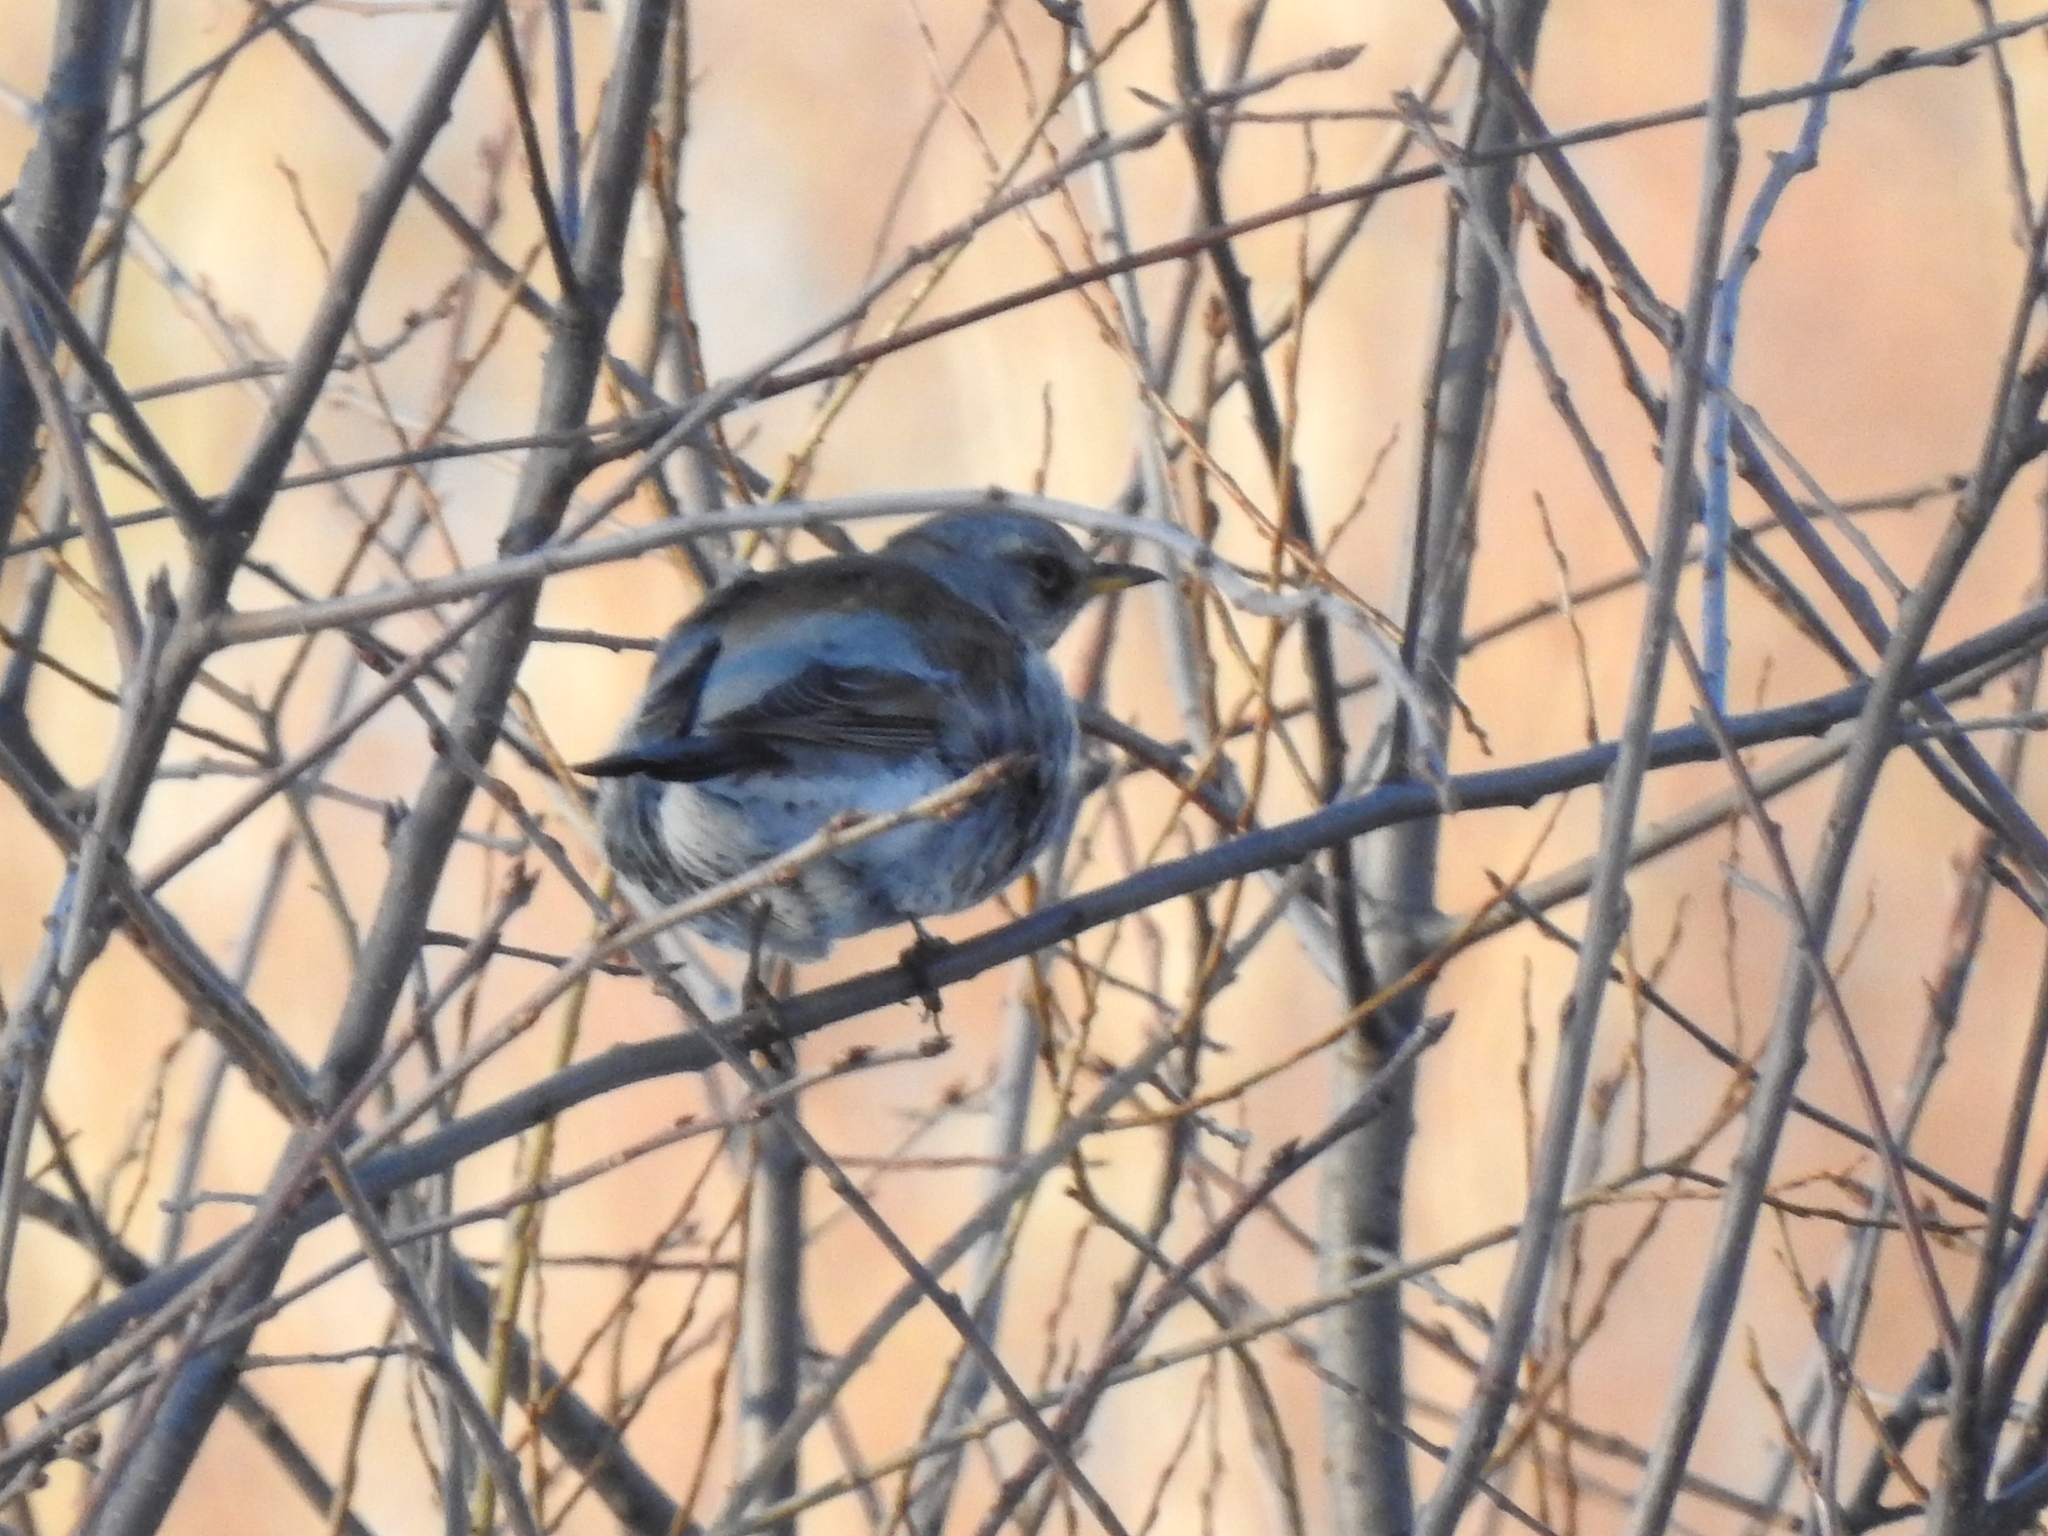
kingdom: Animalia
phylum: Chordata
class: Aves
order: Passeriformes
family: Turdidae
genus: Turdus
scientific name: Turdus pilaris
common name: Fieldfare
